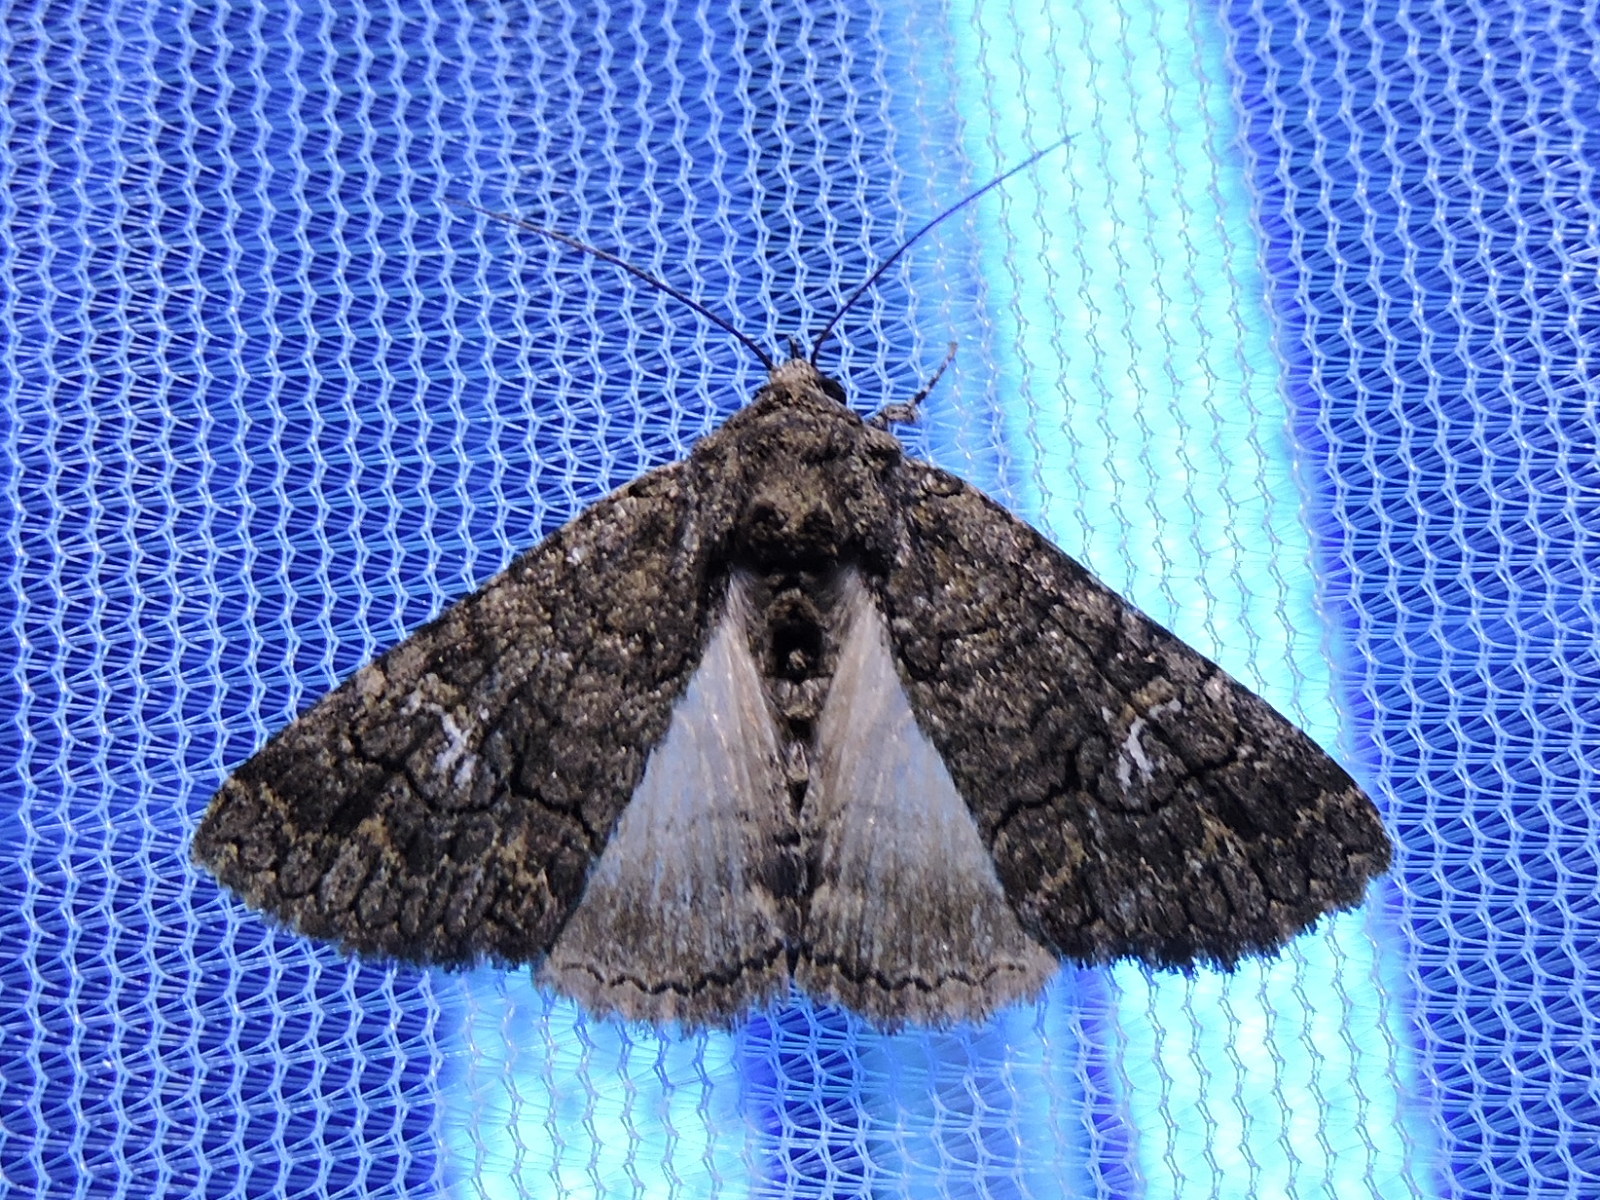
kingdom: Animalia
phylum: Arthropoda
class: Insecta
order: Lepidoptera
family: Erebidae
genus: Elousa
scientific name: Elousa mima
